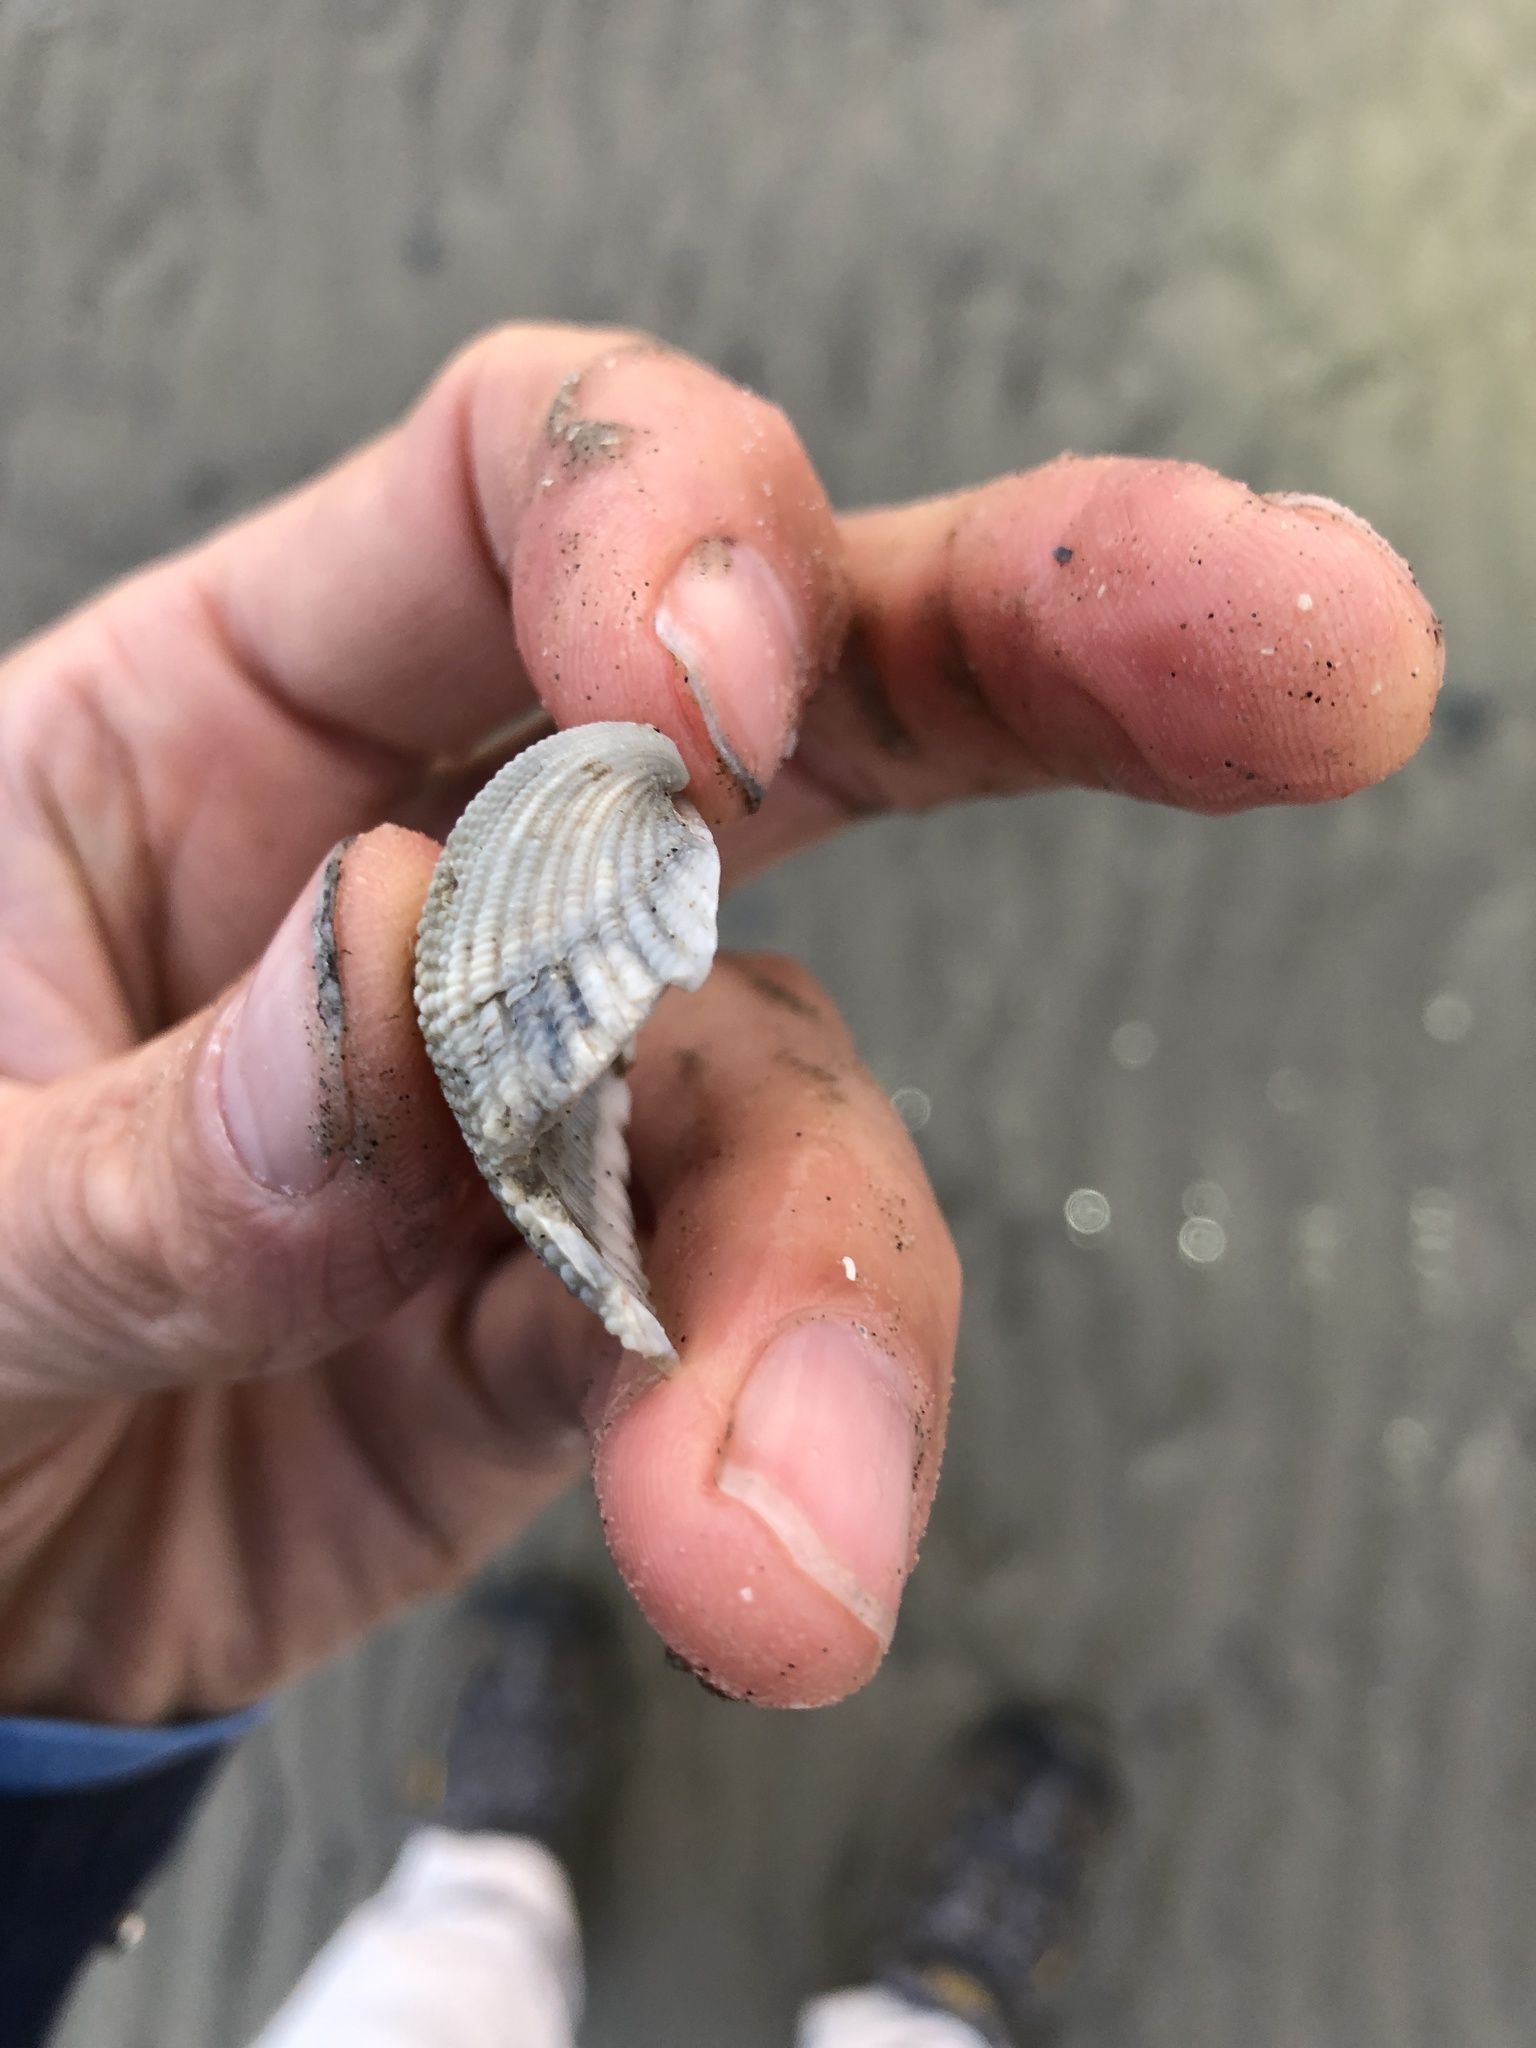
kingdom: Animalia
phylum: Mollusca
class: Bivalvia
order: Arcida
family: Arcidae
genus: Anadara
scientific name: Anadara brasiliana
